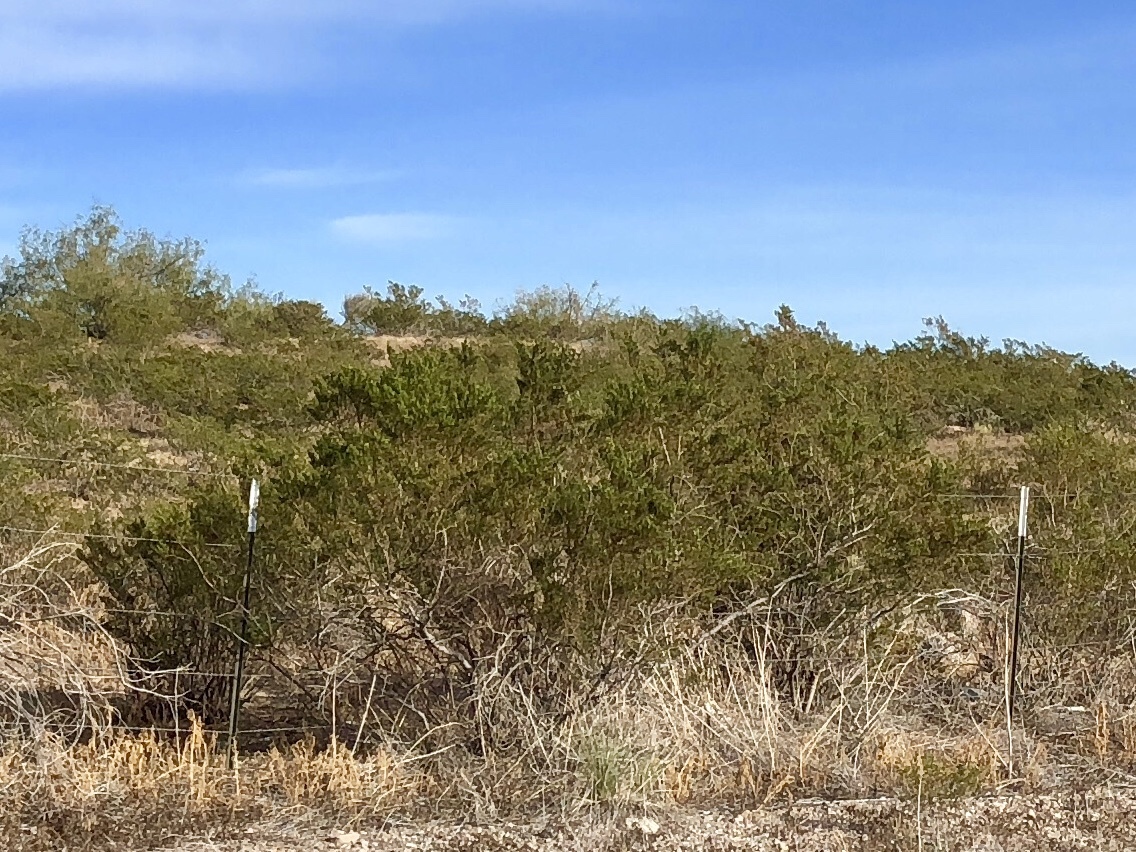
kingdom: Plantae
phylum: Tracheophyta
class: Magnoliopsida
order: Zygophyllales
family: Zygophyllaceae
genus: Larrea
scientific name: Larrea tridentata
